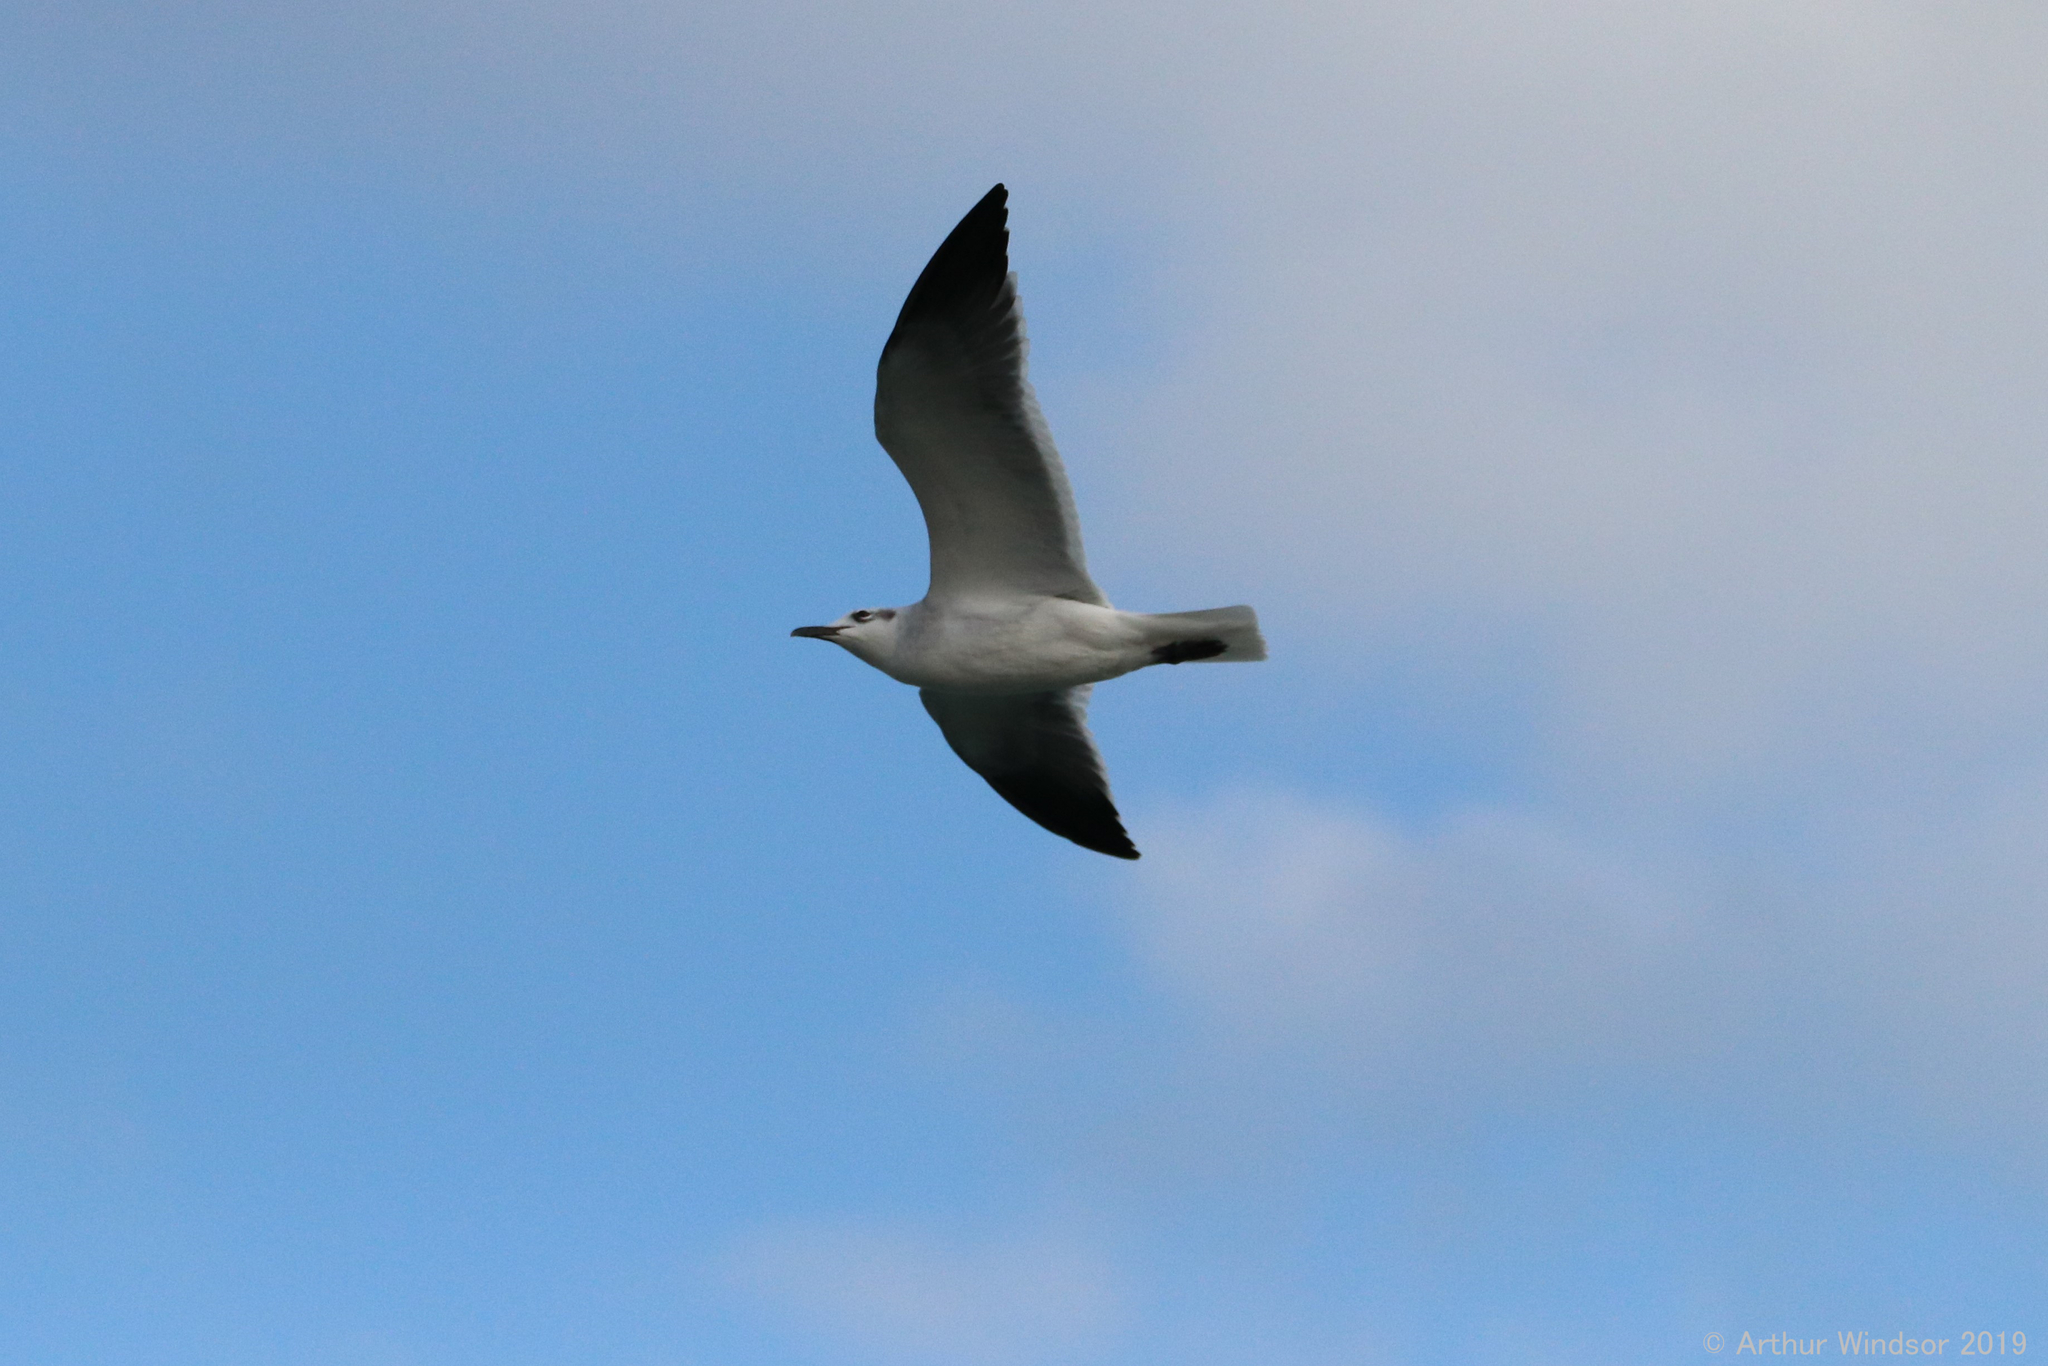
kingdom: Animalia
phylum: Chordata
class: Aves
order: Charadriiformes
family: Laridae
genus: Leucophaeus
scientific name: Leucophaeus atricilla
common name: Laughing gull
